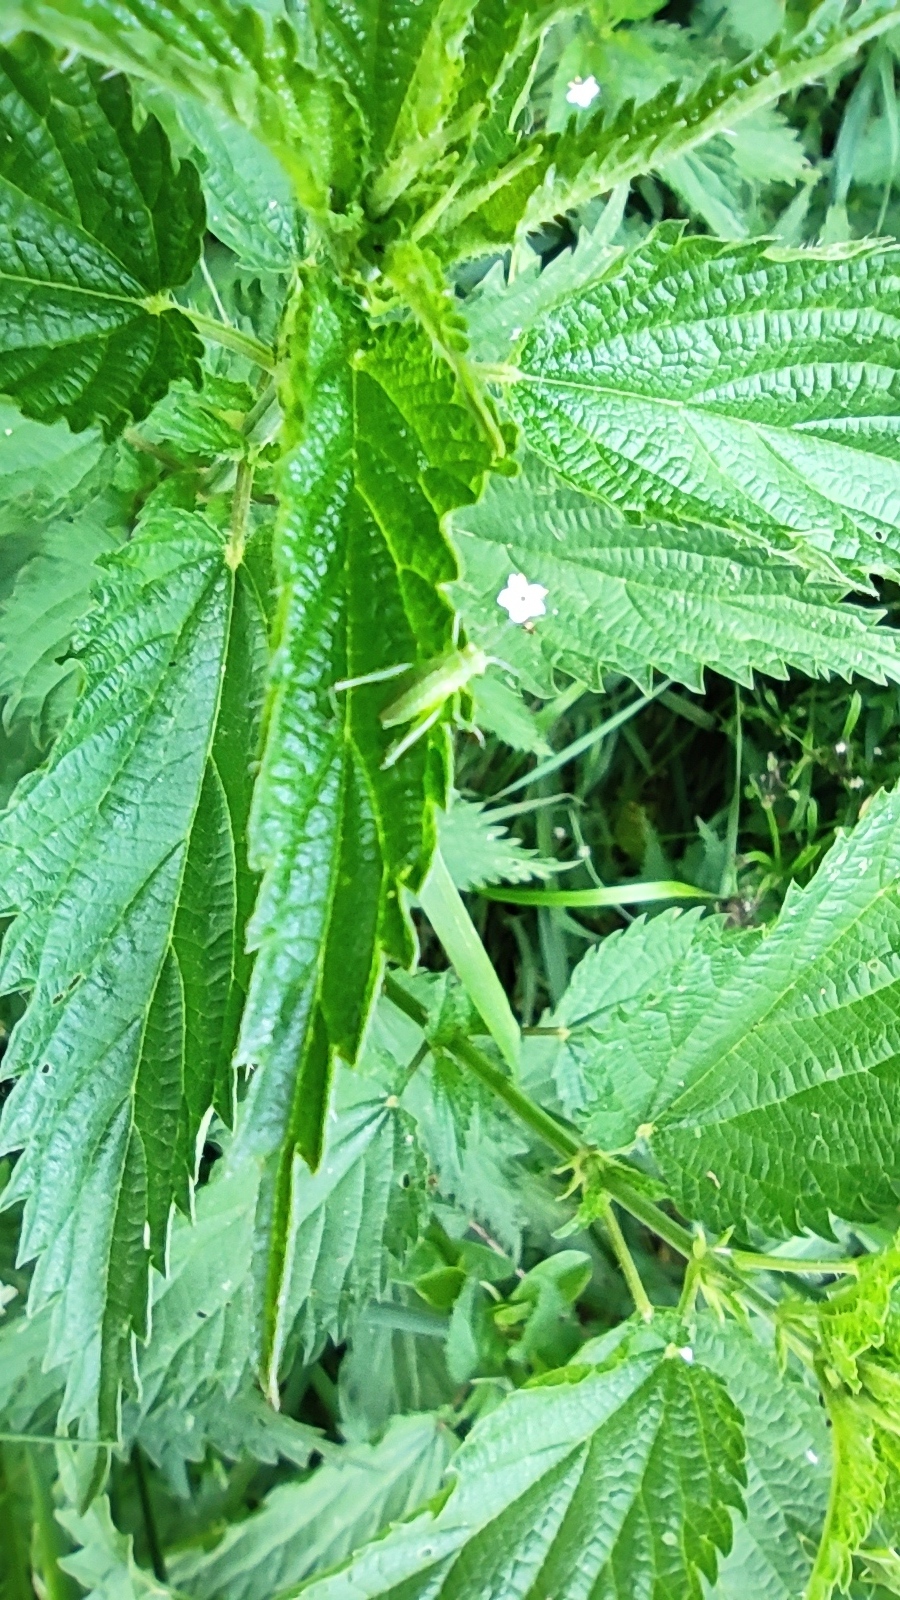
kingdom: Animalia
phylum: Arthropoda
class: Insecta
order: Orthoptera
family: Tettigoniidae
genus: Leptophyes
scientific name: Leptophyes albovittata
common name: Striped bush-cricket
